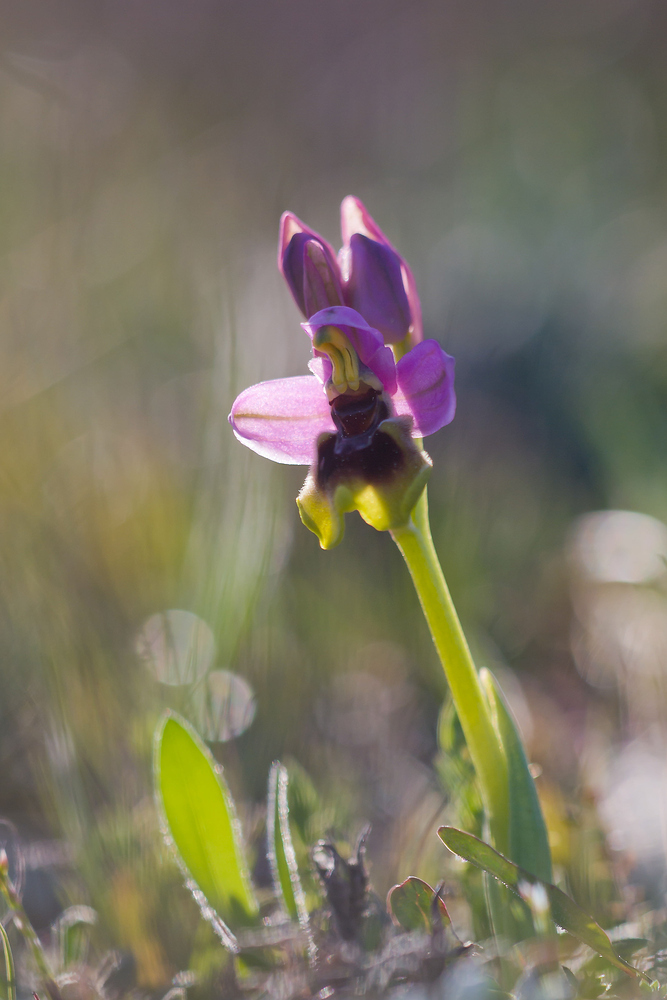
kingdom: Plantae
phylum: Tracheophyta
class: Liliopsida
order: Asparagales
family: Orchidaceae
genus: Ophrys
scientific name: Ophrys tenthredinifera
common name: Sawfly orchid
